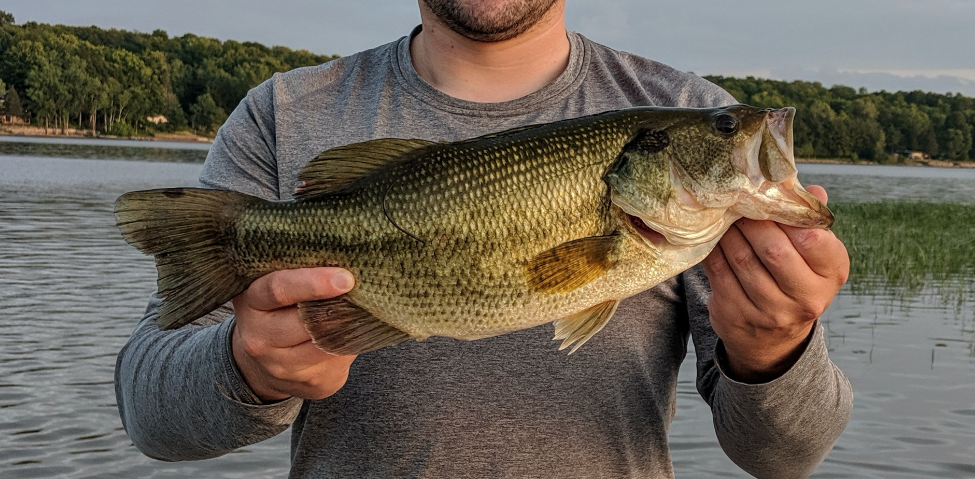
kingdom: Animalia
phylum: Chordata
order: Perciformes
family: Centrarchidae
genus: Micropterus
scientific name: Micropterus
